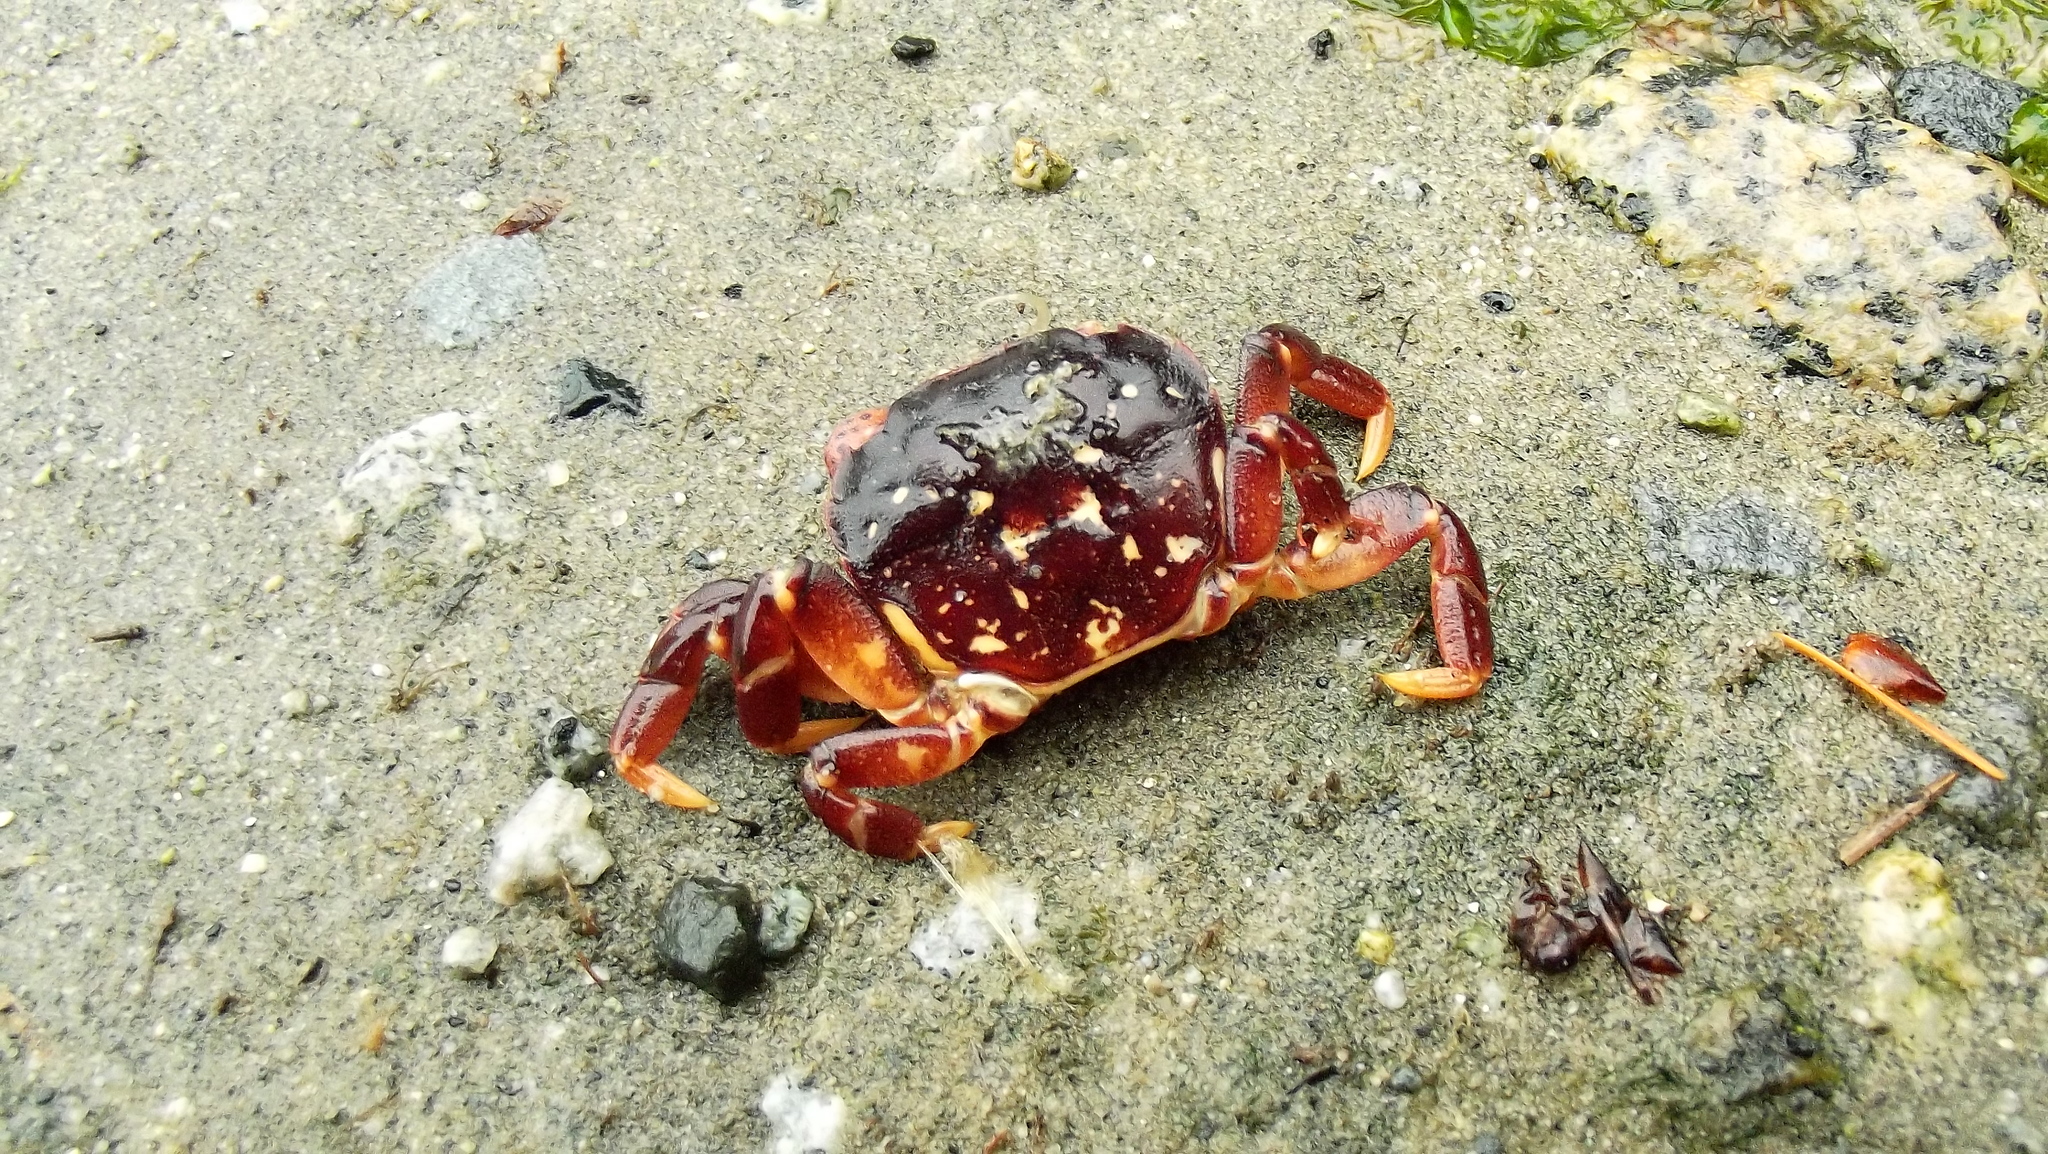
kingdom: Animalia
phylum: Arthropoda
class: Malacostraca
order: Decapoda
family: Varunidae
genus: Hemigrapsus
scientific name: Hemigrapsus nudus
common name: Purple shore crab
